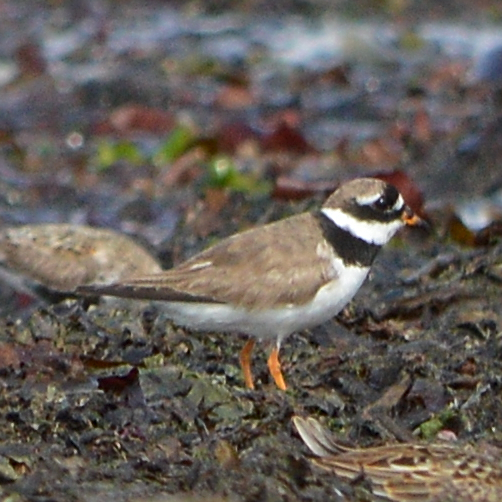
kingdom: Animalia
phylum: Chordata
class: Aves
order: Charadriiformes
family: Charadriidae
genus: Charadrius
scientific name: Charadrius hiaticula
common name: Common ringed plover
